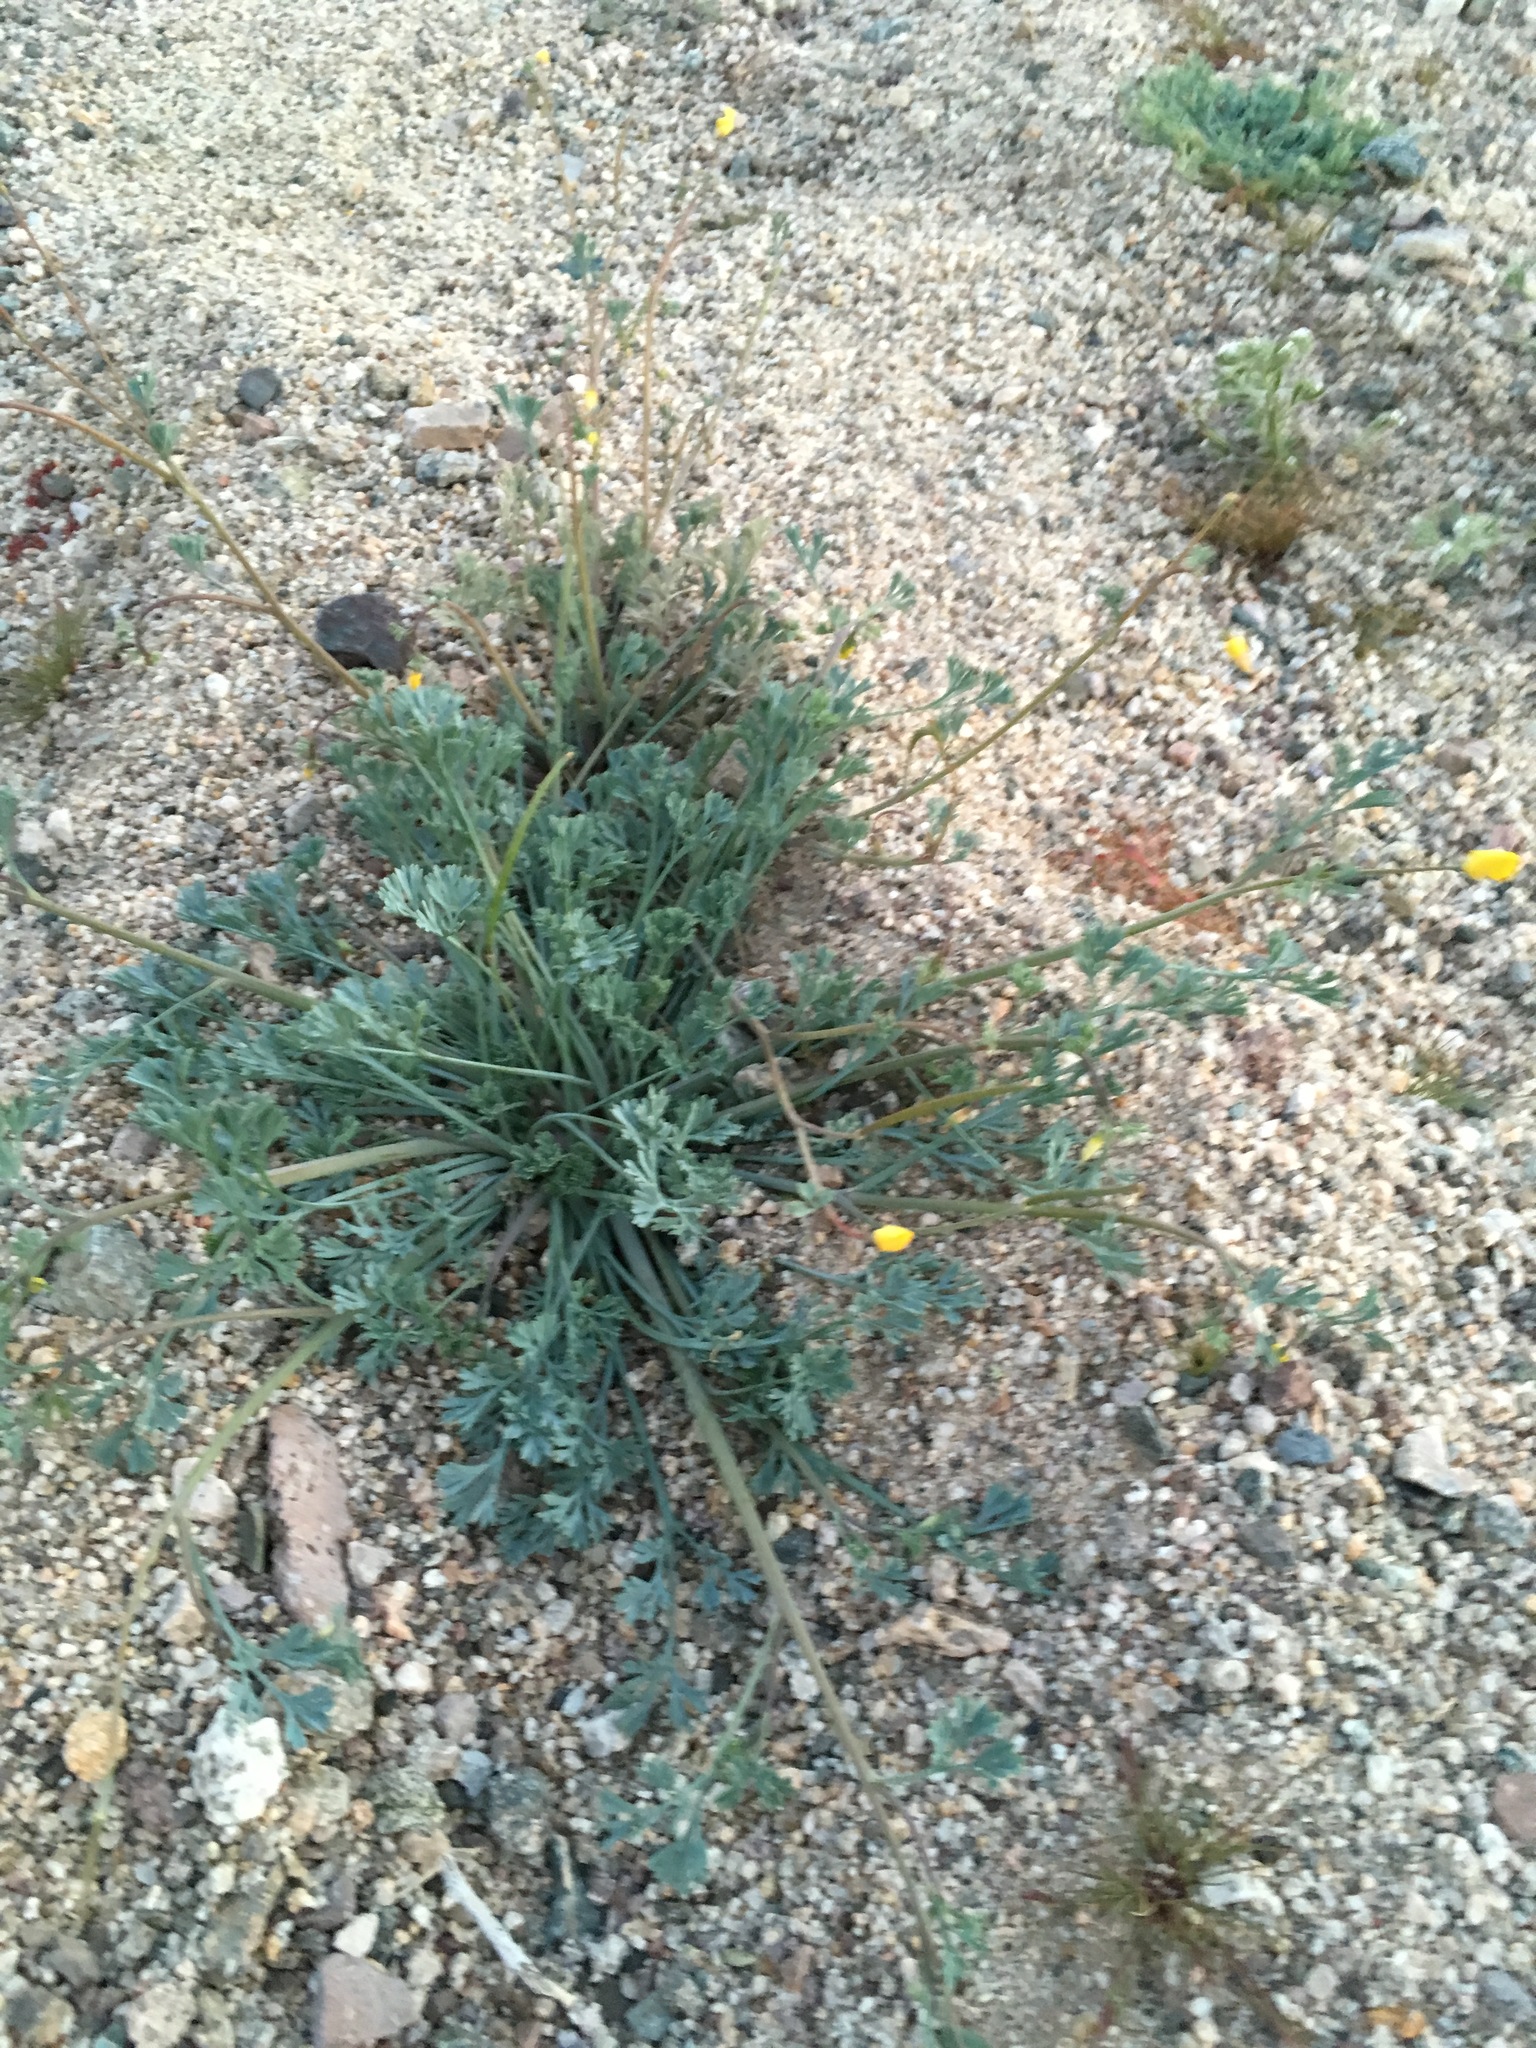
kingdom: Plantae
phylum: Tracheophyta
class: Magnoliopsida
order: Ranunculales
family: Papaveraceae
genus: Eschscholzia
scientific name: Eschscholzia minutiflora
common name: Small-flower california-poppy
